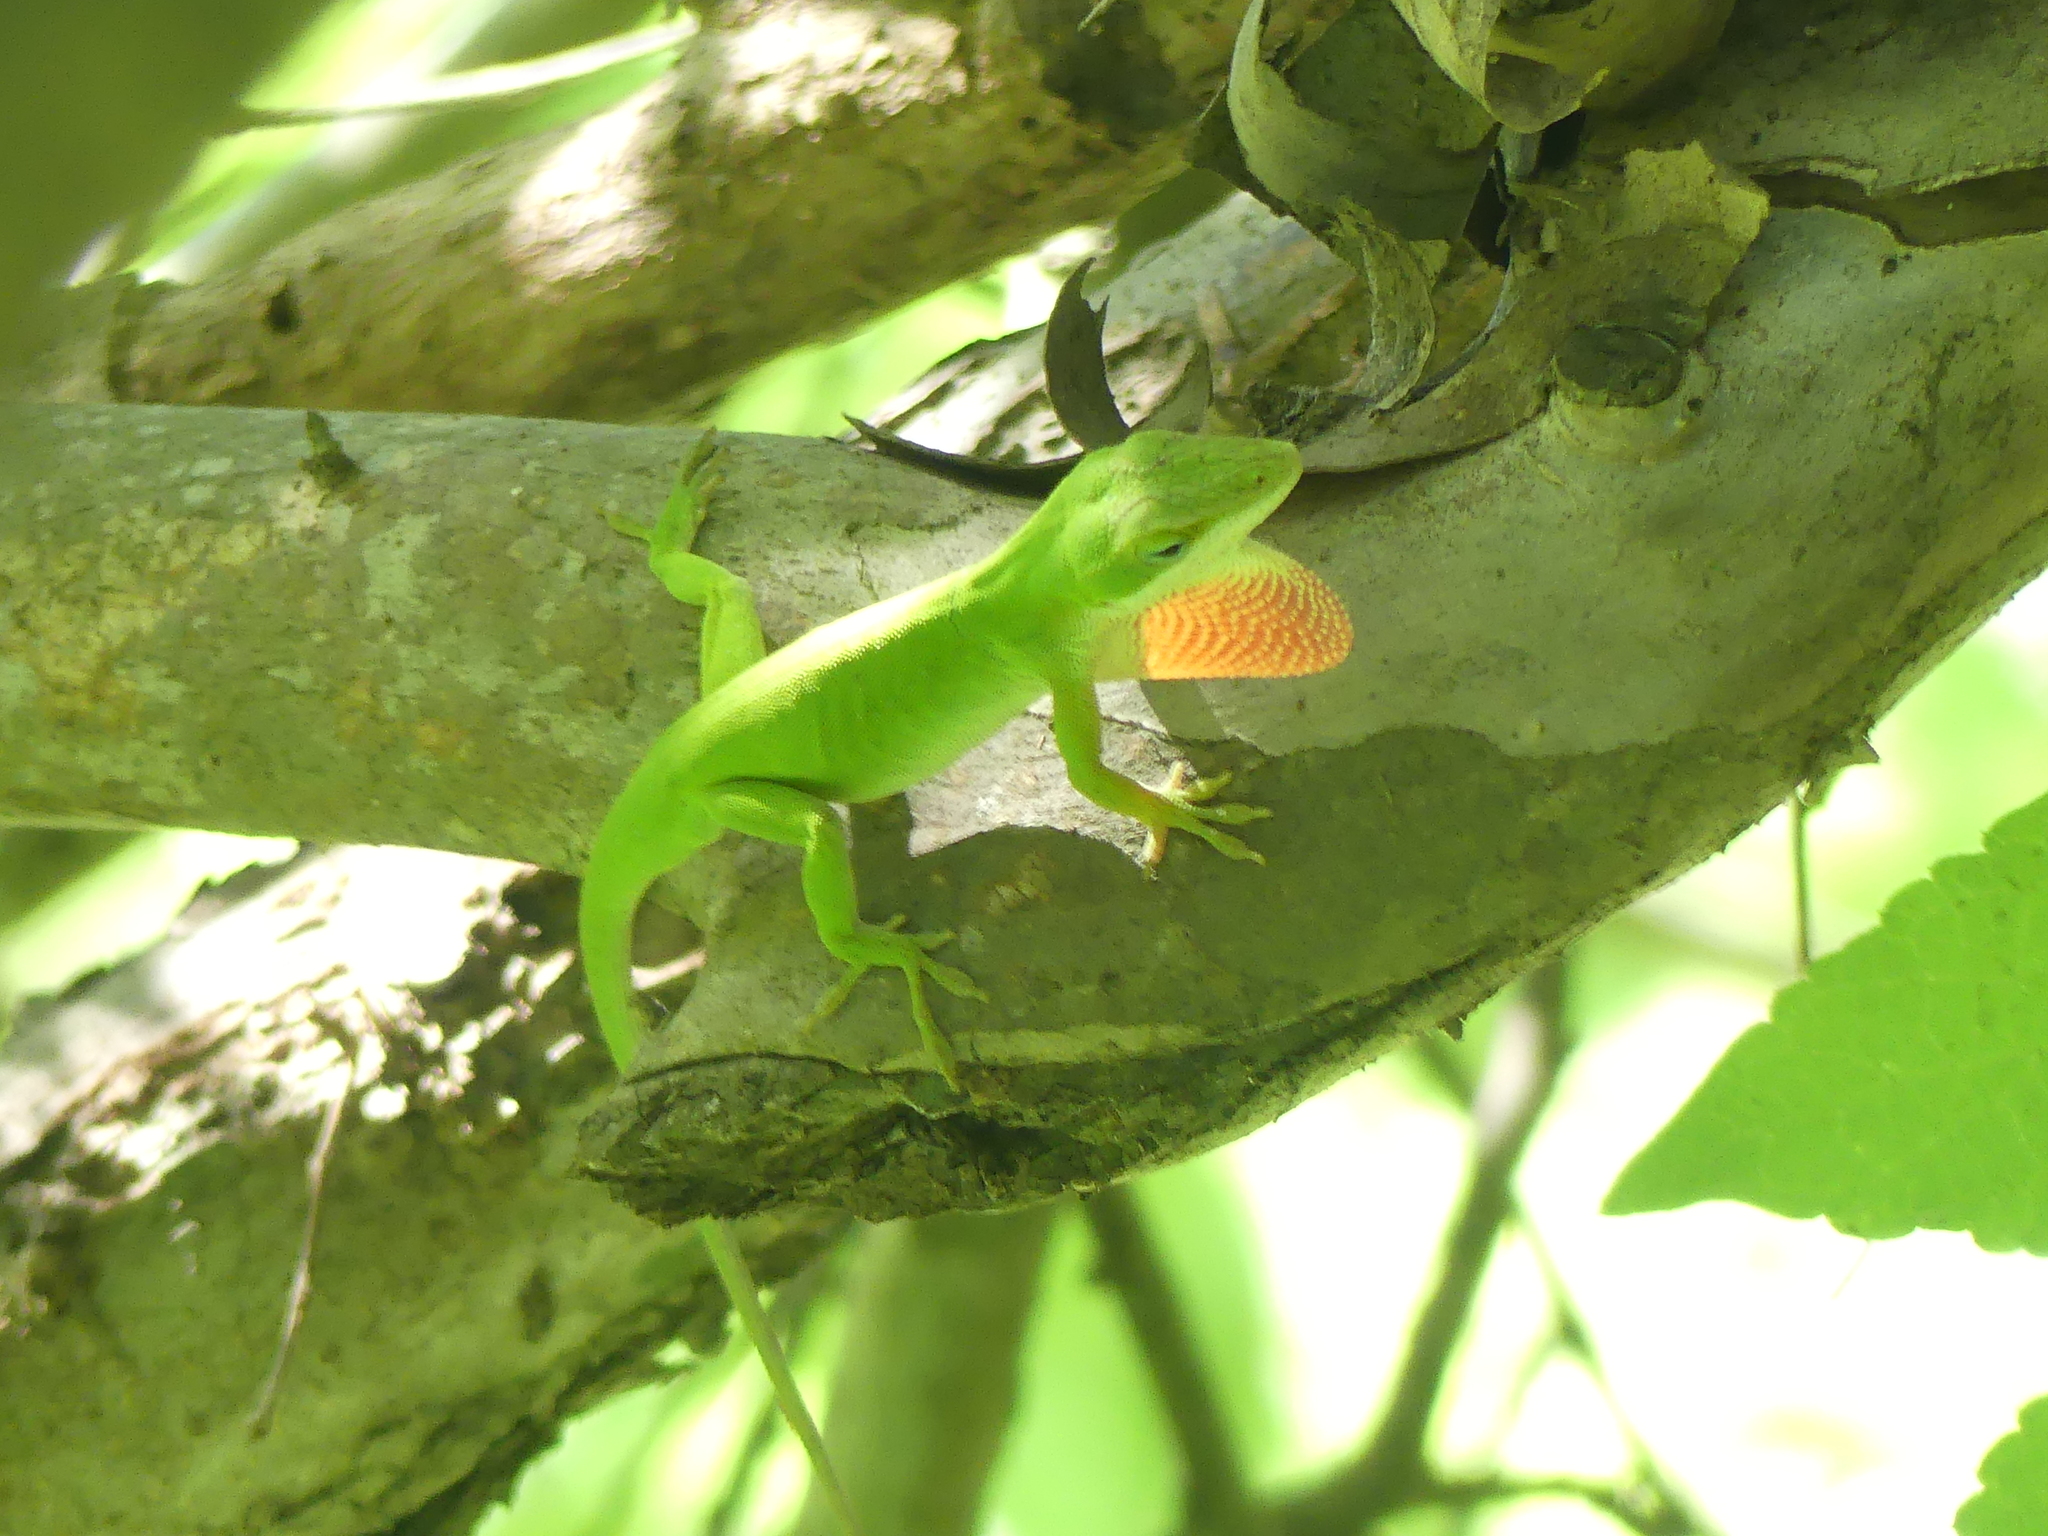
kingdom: Animalia
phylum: Chordata
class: Squamata
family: Dactyloidae
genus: Anolis
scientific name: Anolis carolinensis
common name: Green anole
